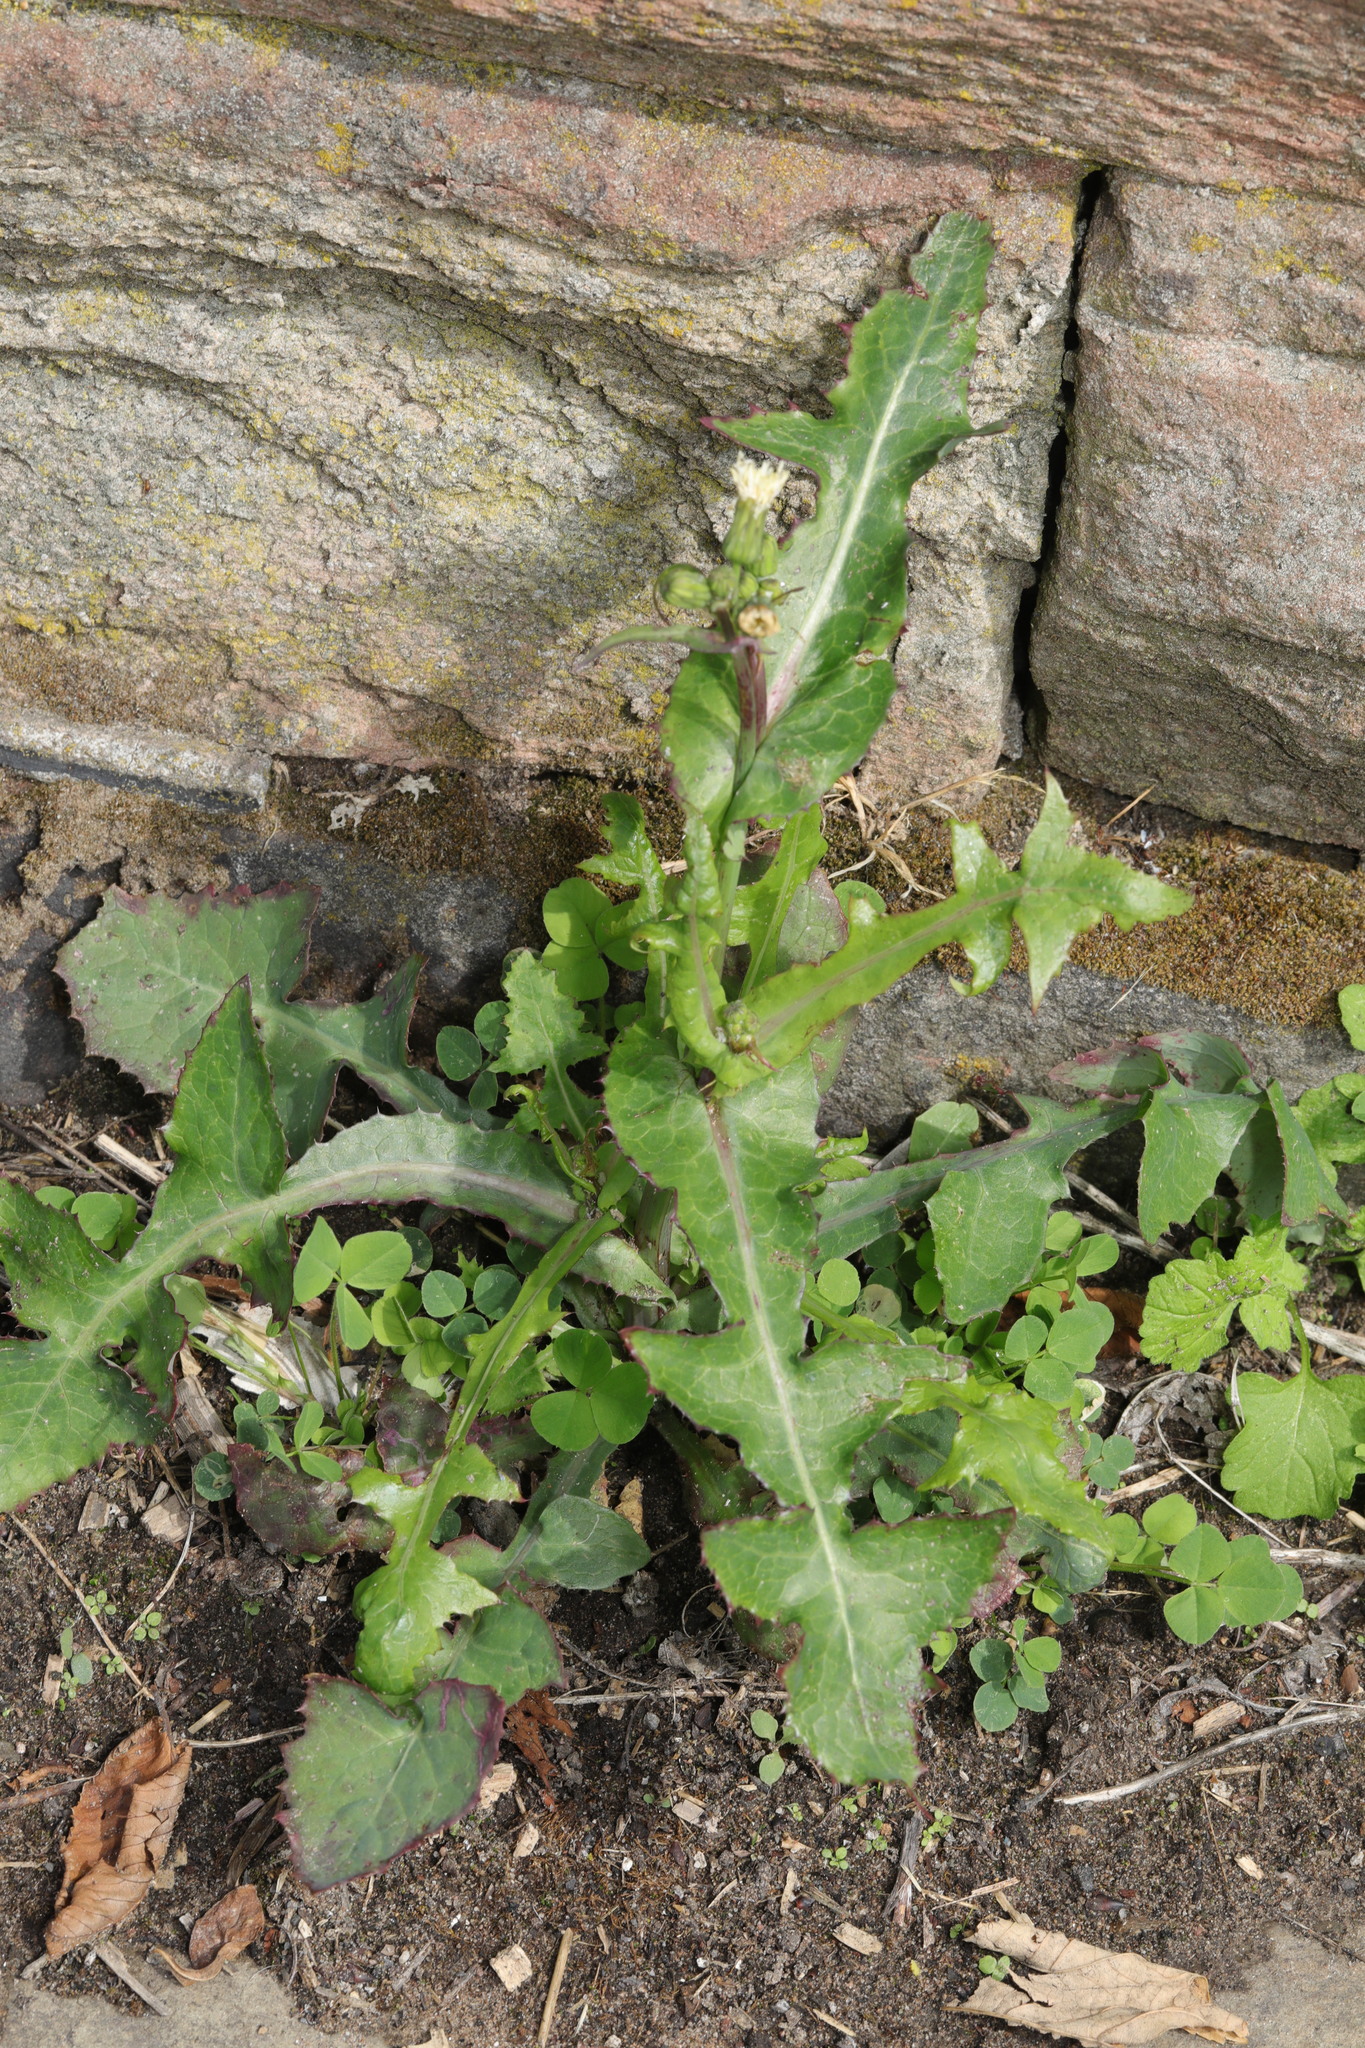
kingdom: Plantae
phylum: Tracheophyta
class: Magnoliopsida
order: Asterales
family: Asteraceae
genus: Sonchus
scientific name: Sonchus oleraceus
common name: Common sowthistle
